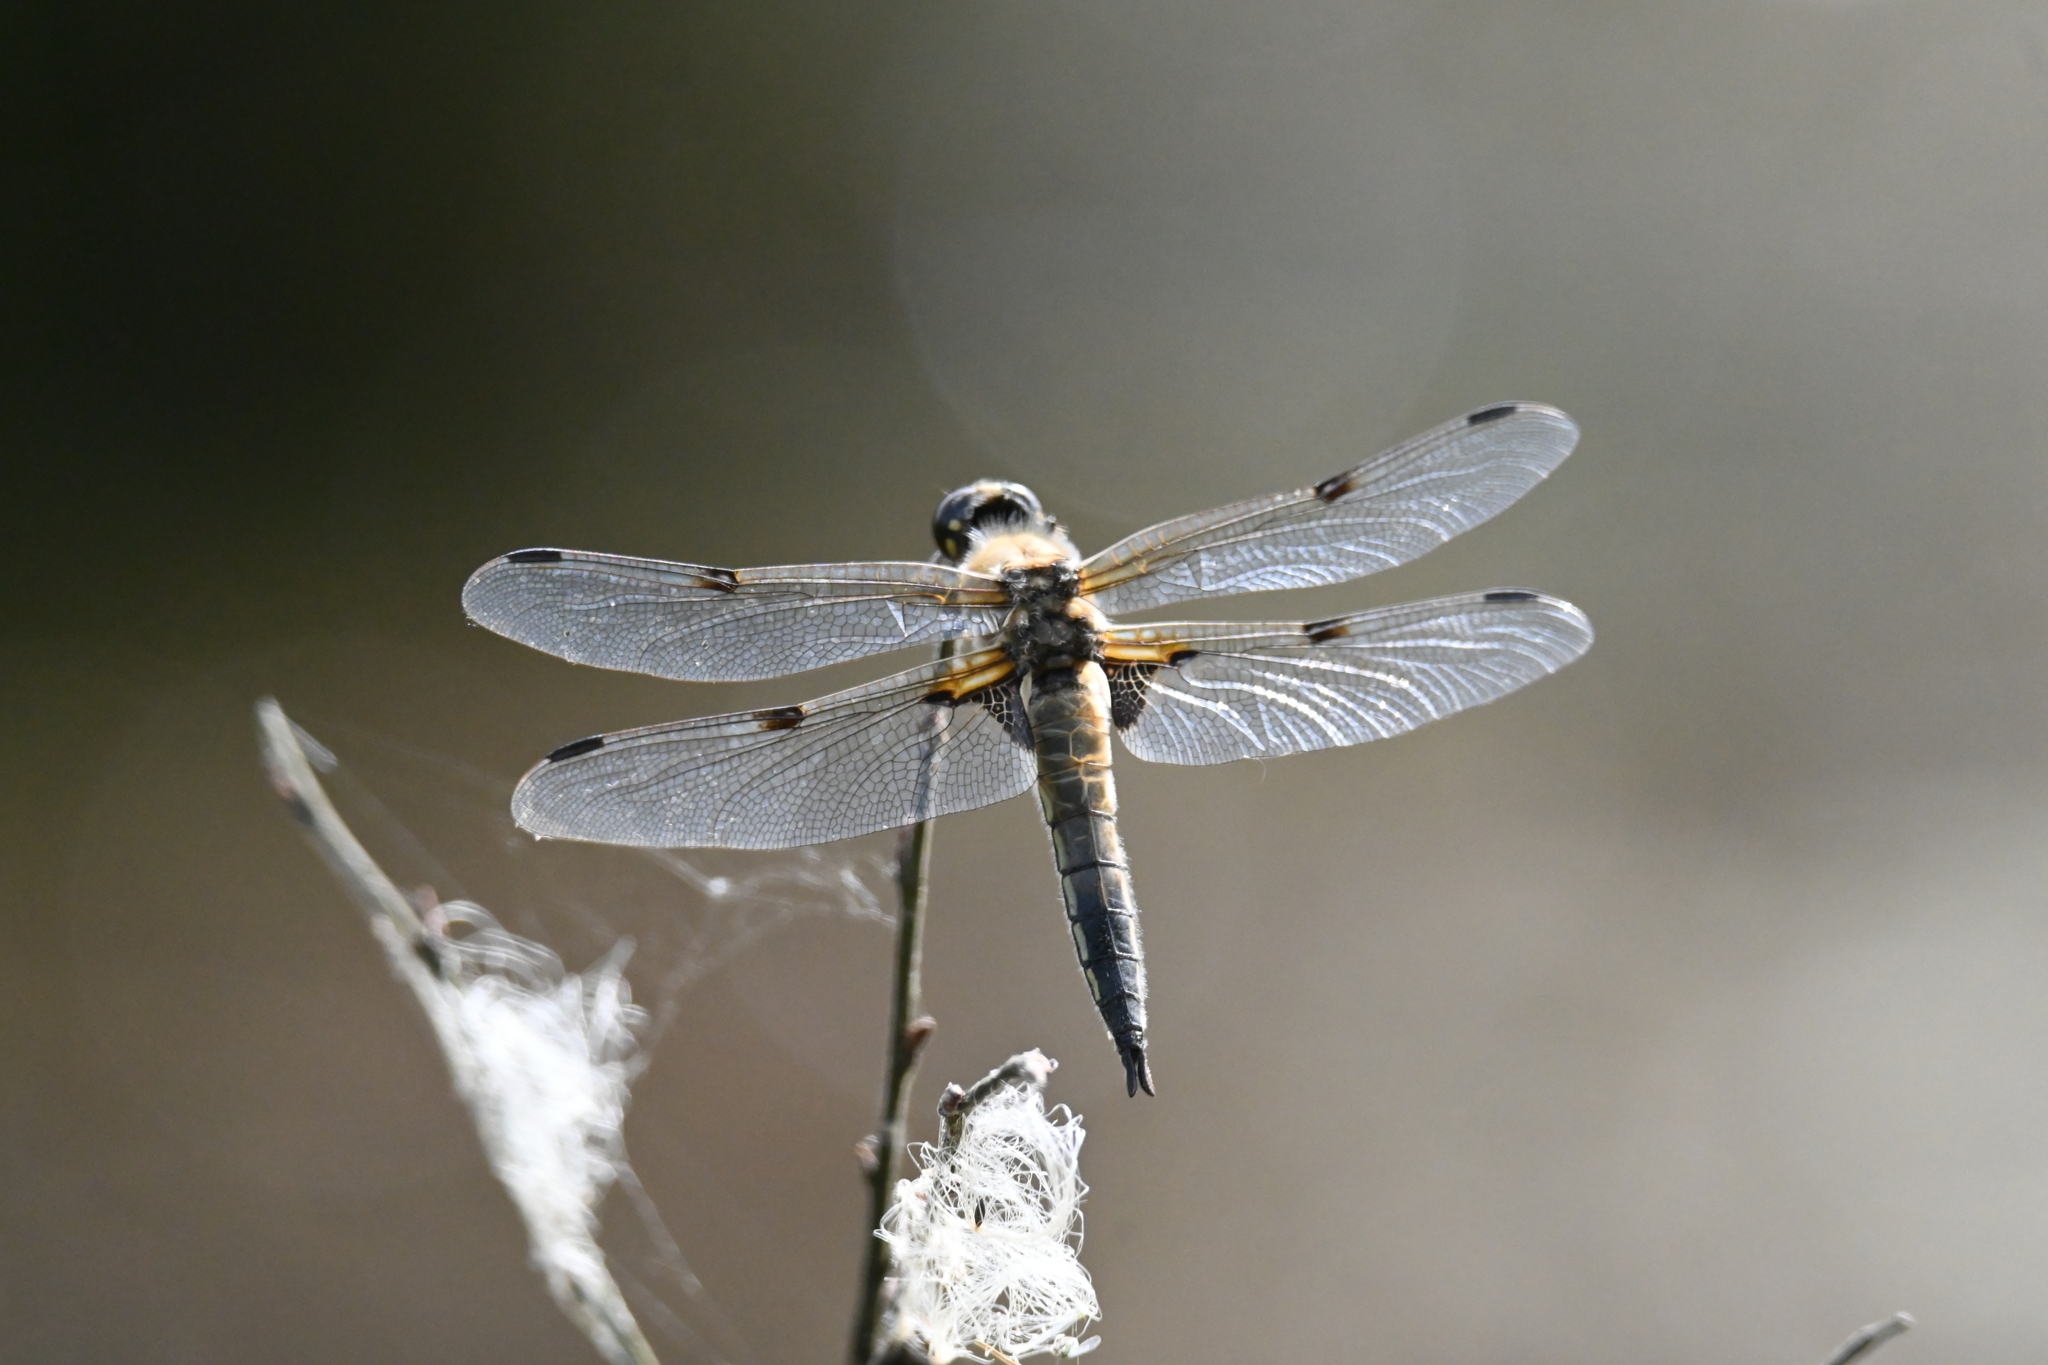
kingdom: Animalia
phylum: Arthropoda
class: Insecta
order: Odonata
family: Libellulidae
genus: Libellula
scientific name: Libellula quadrimaculata
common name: Four-spotted chaser
